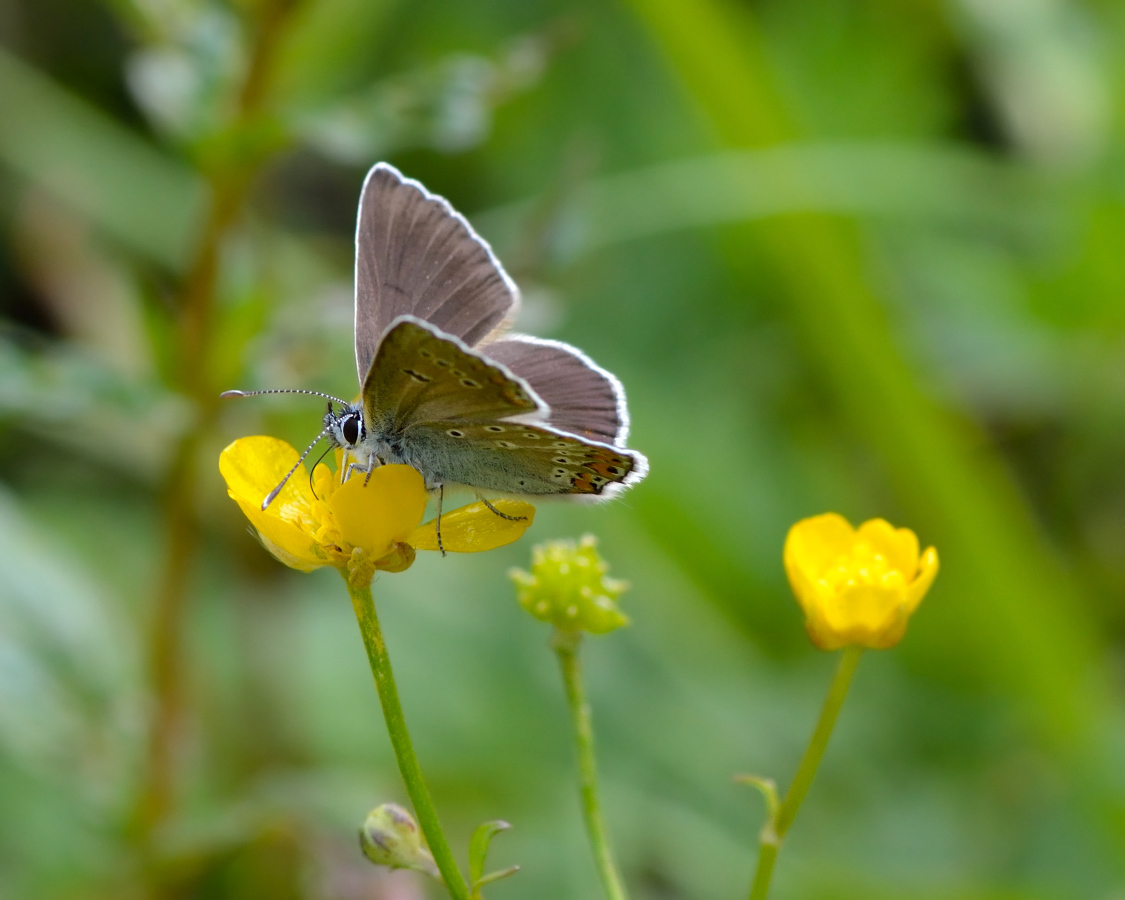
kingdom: Animalia
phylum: Arthropoda
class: Insecta
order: Lepidoptera
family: Lycaenidae
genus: Eumedonia
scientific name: Eumedonia eumedon
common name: Geranium argus
